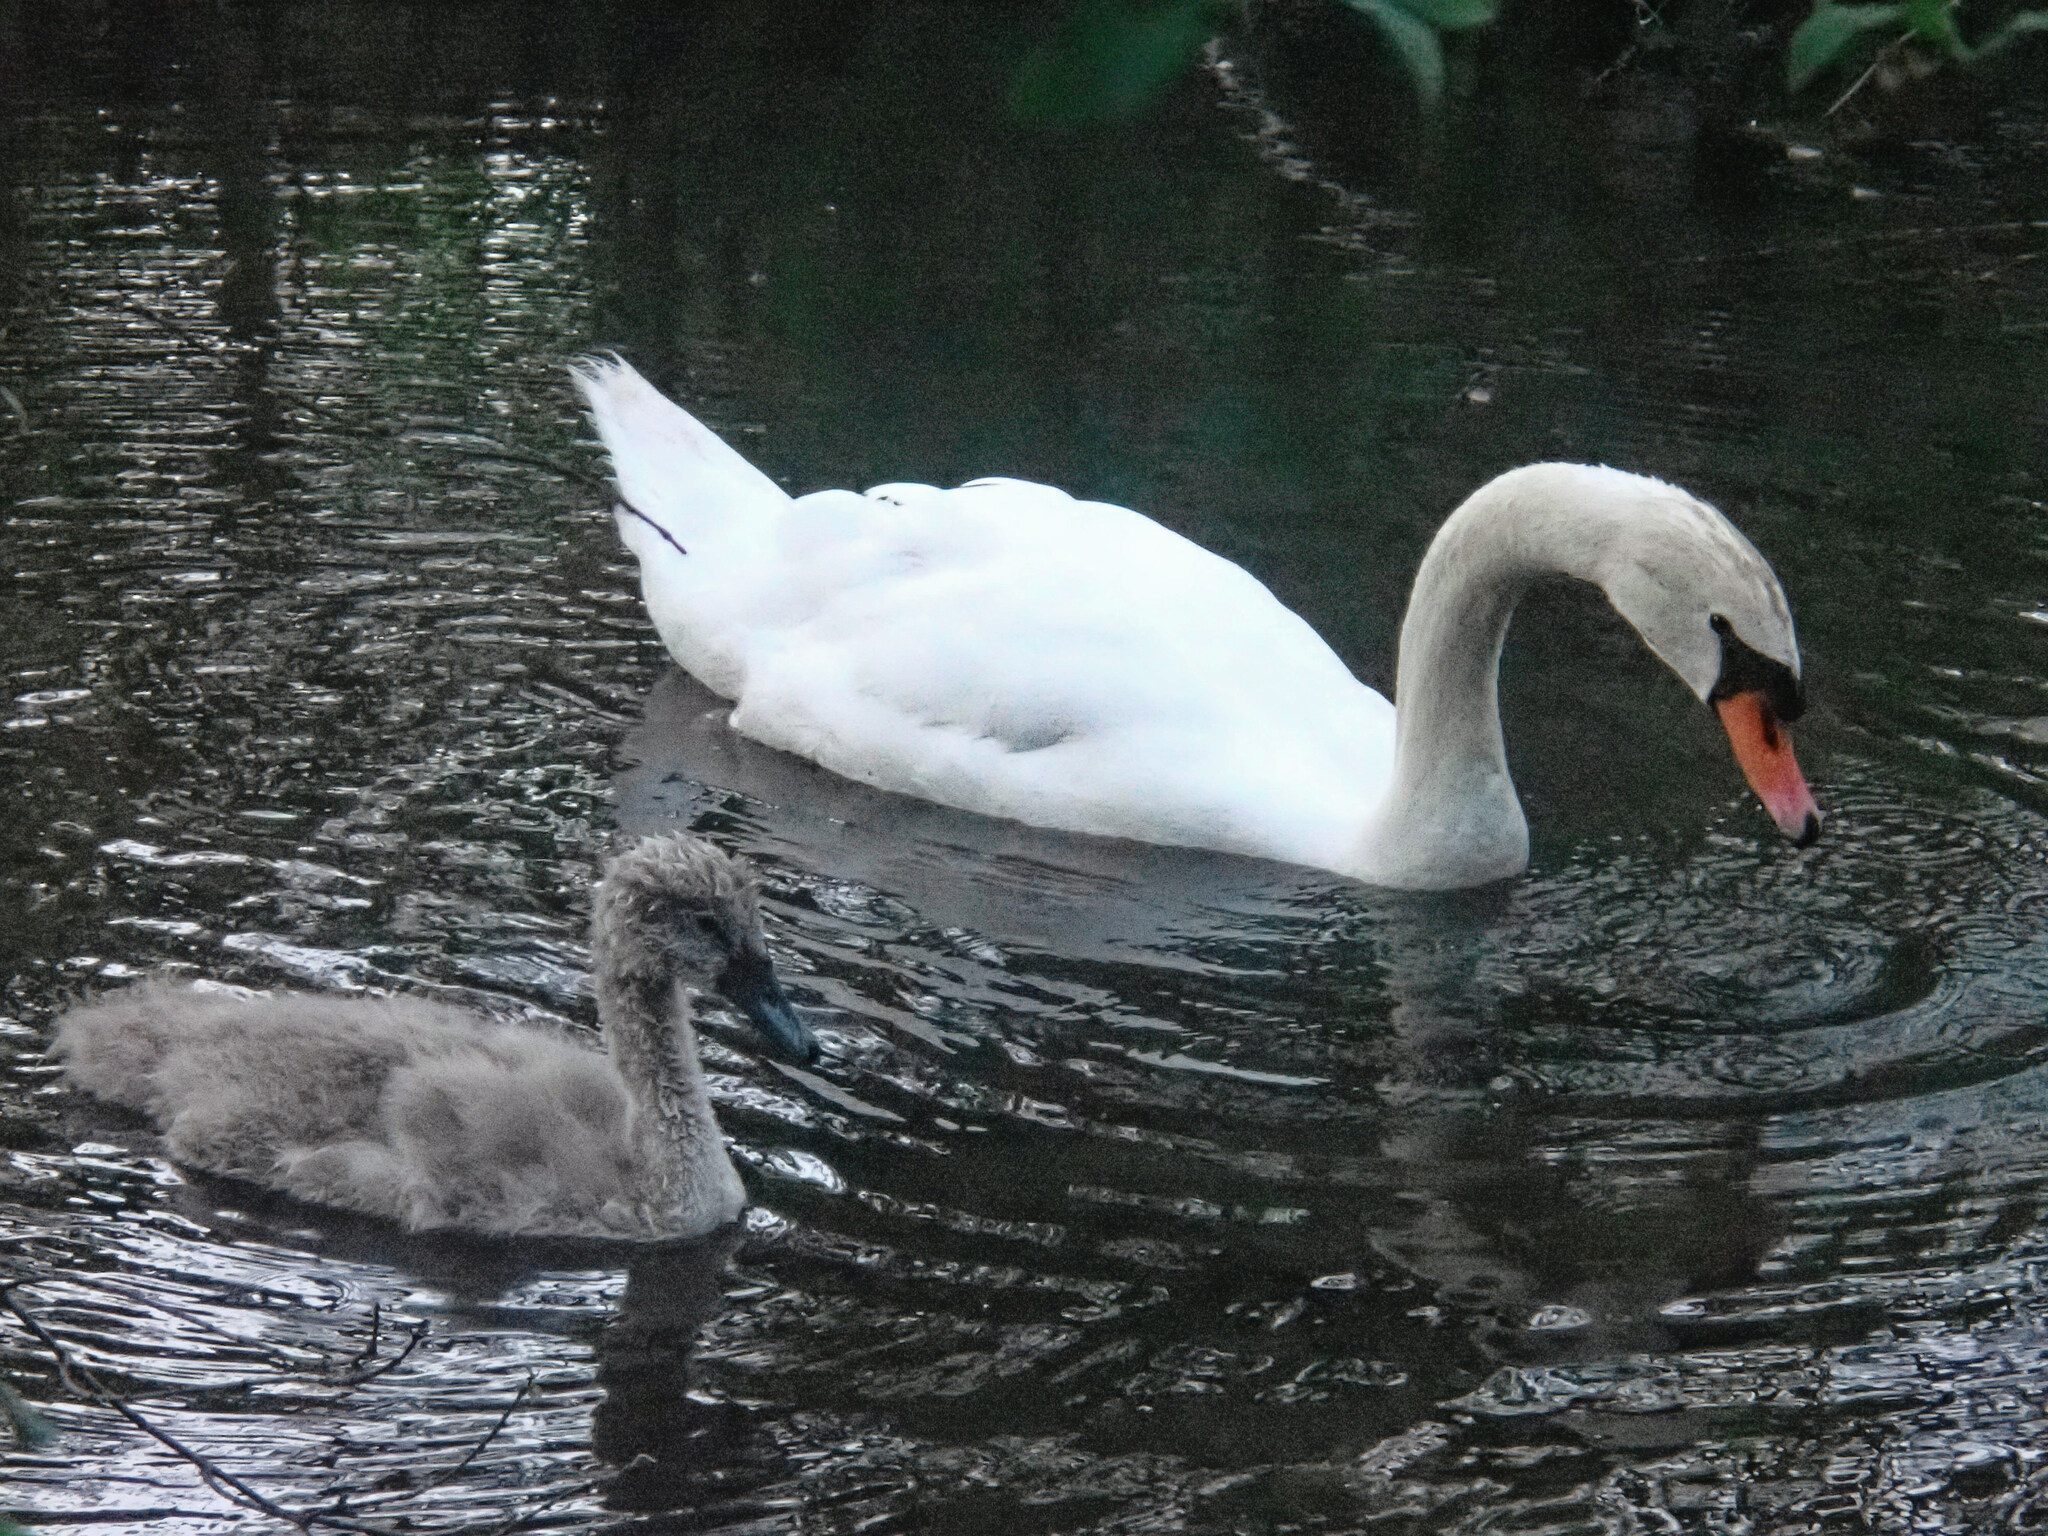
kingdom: Animalia
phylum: Chordata
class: Aves
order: Anseriformes
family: Anatidae
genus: Cygnus
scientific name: Cygnus olor
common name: Mute swan
